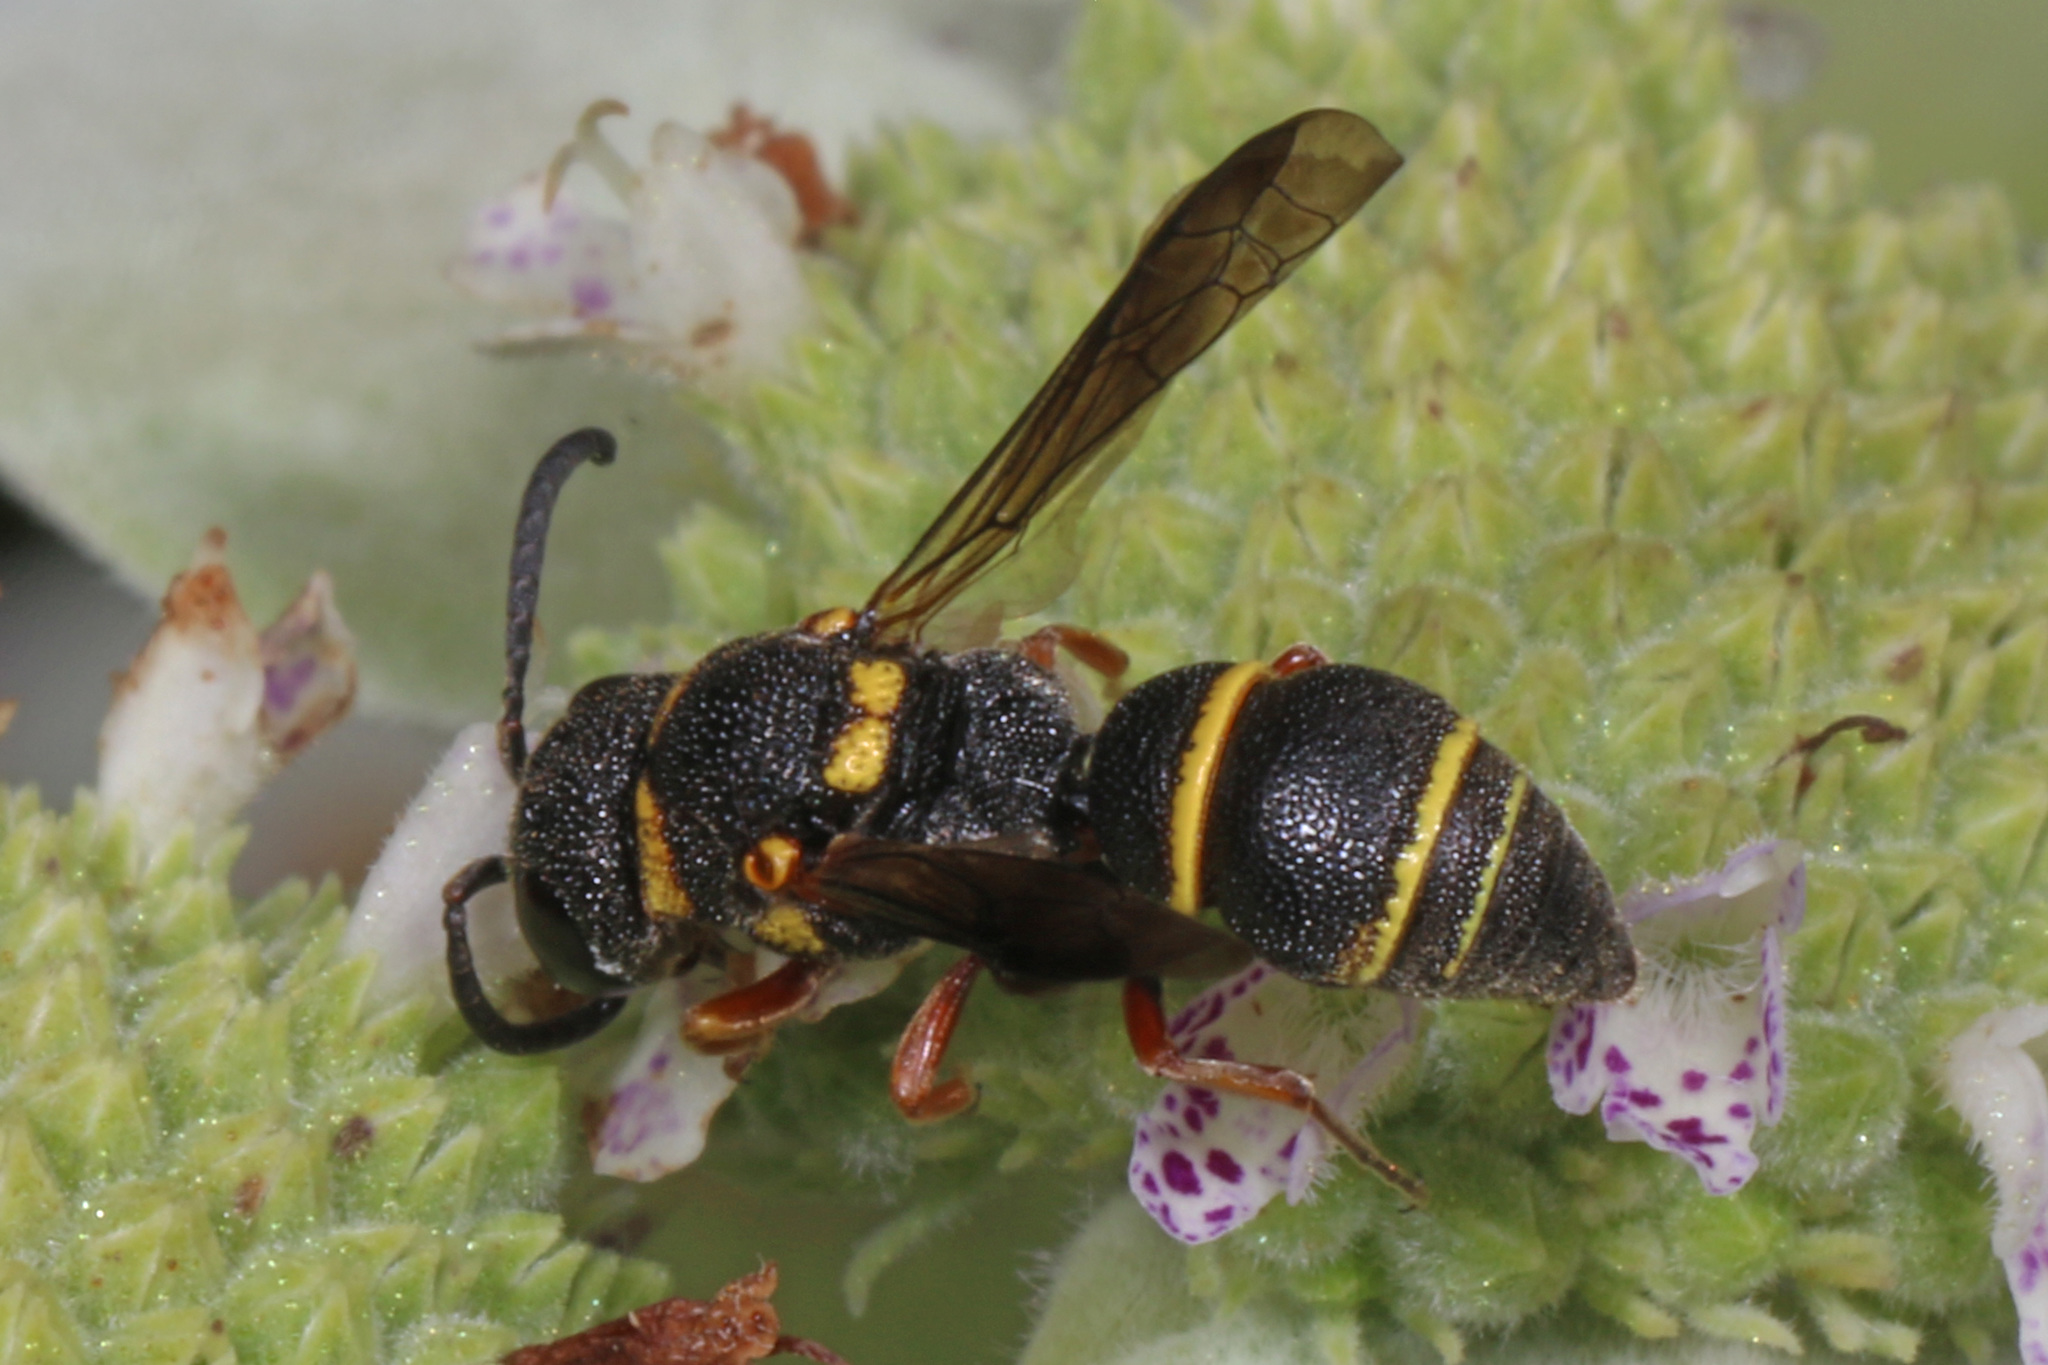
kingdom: Animalia
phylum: Arthropoda
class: Insecta
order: Hymenoptera
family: Eumenidae
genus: Cyrtolabulus
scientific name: Cyrtolabulus mutinensis
